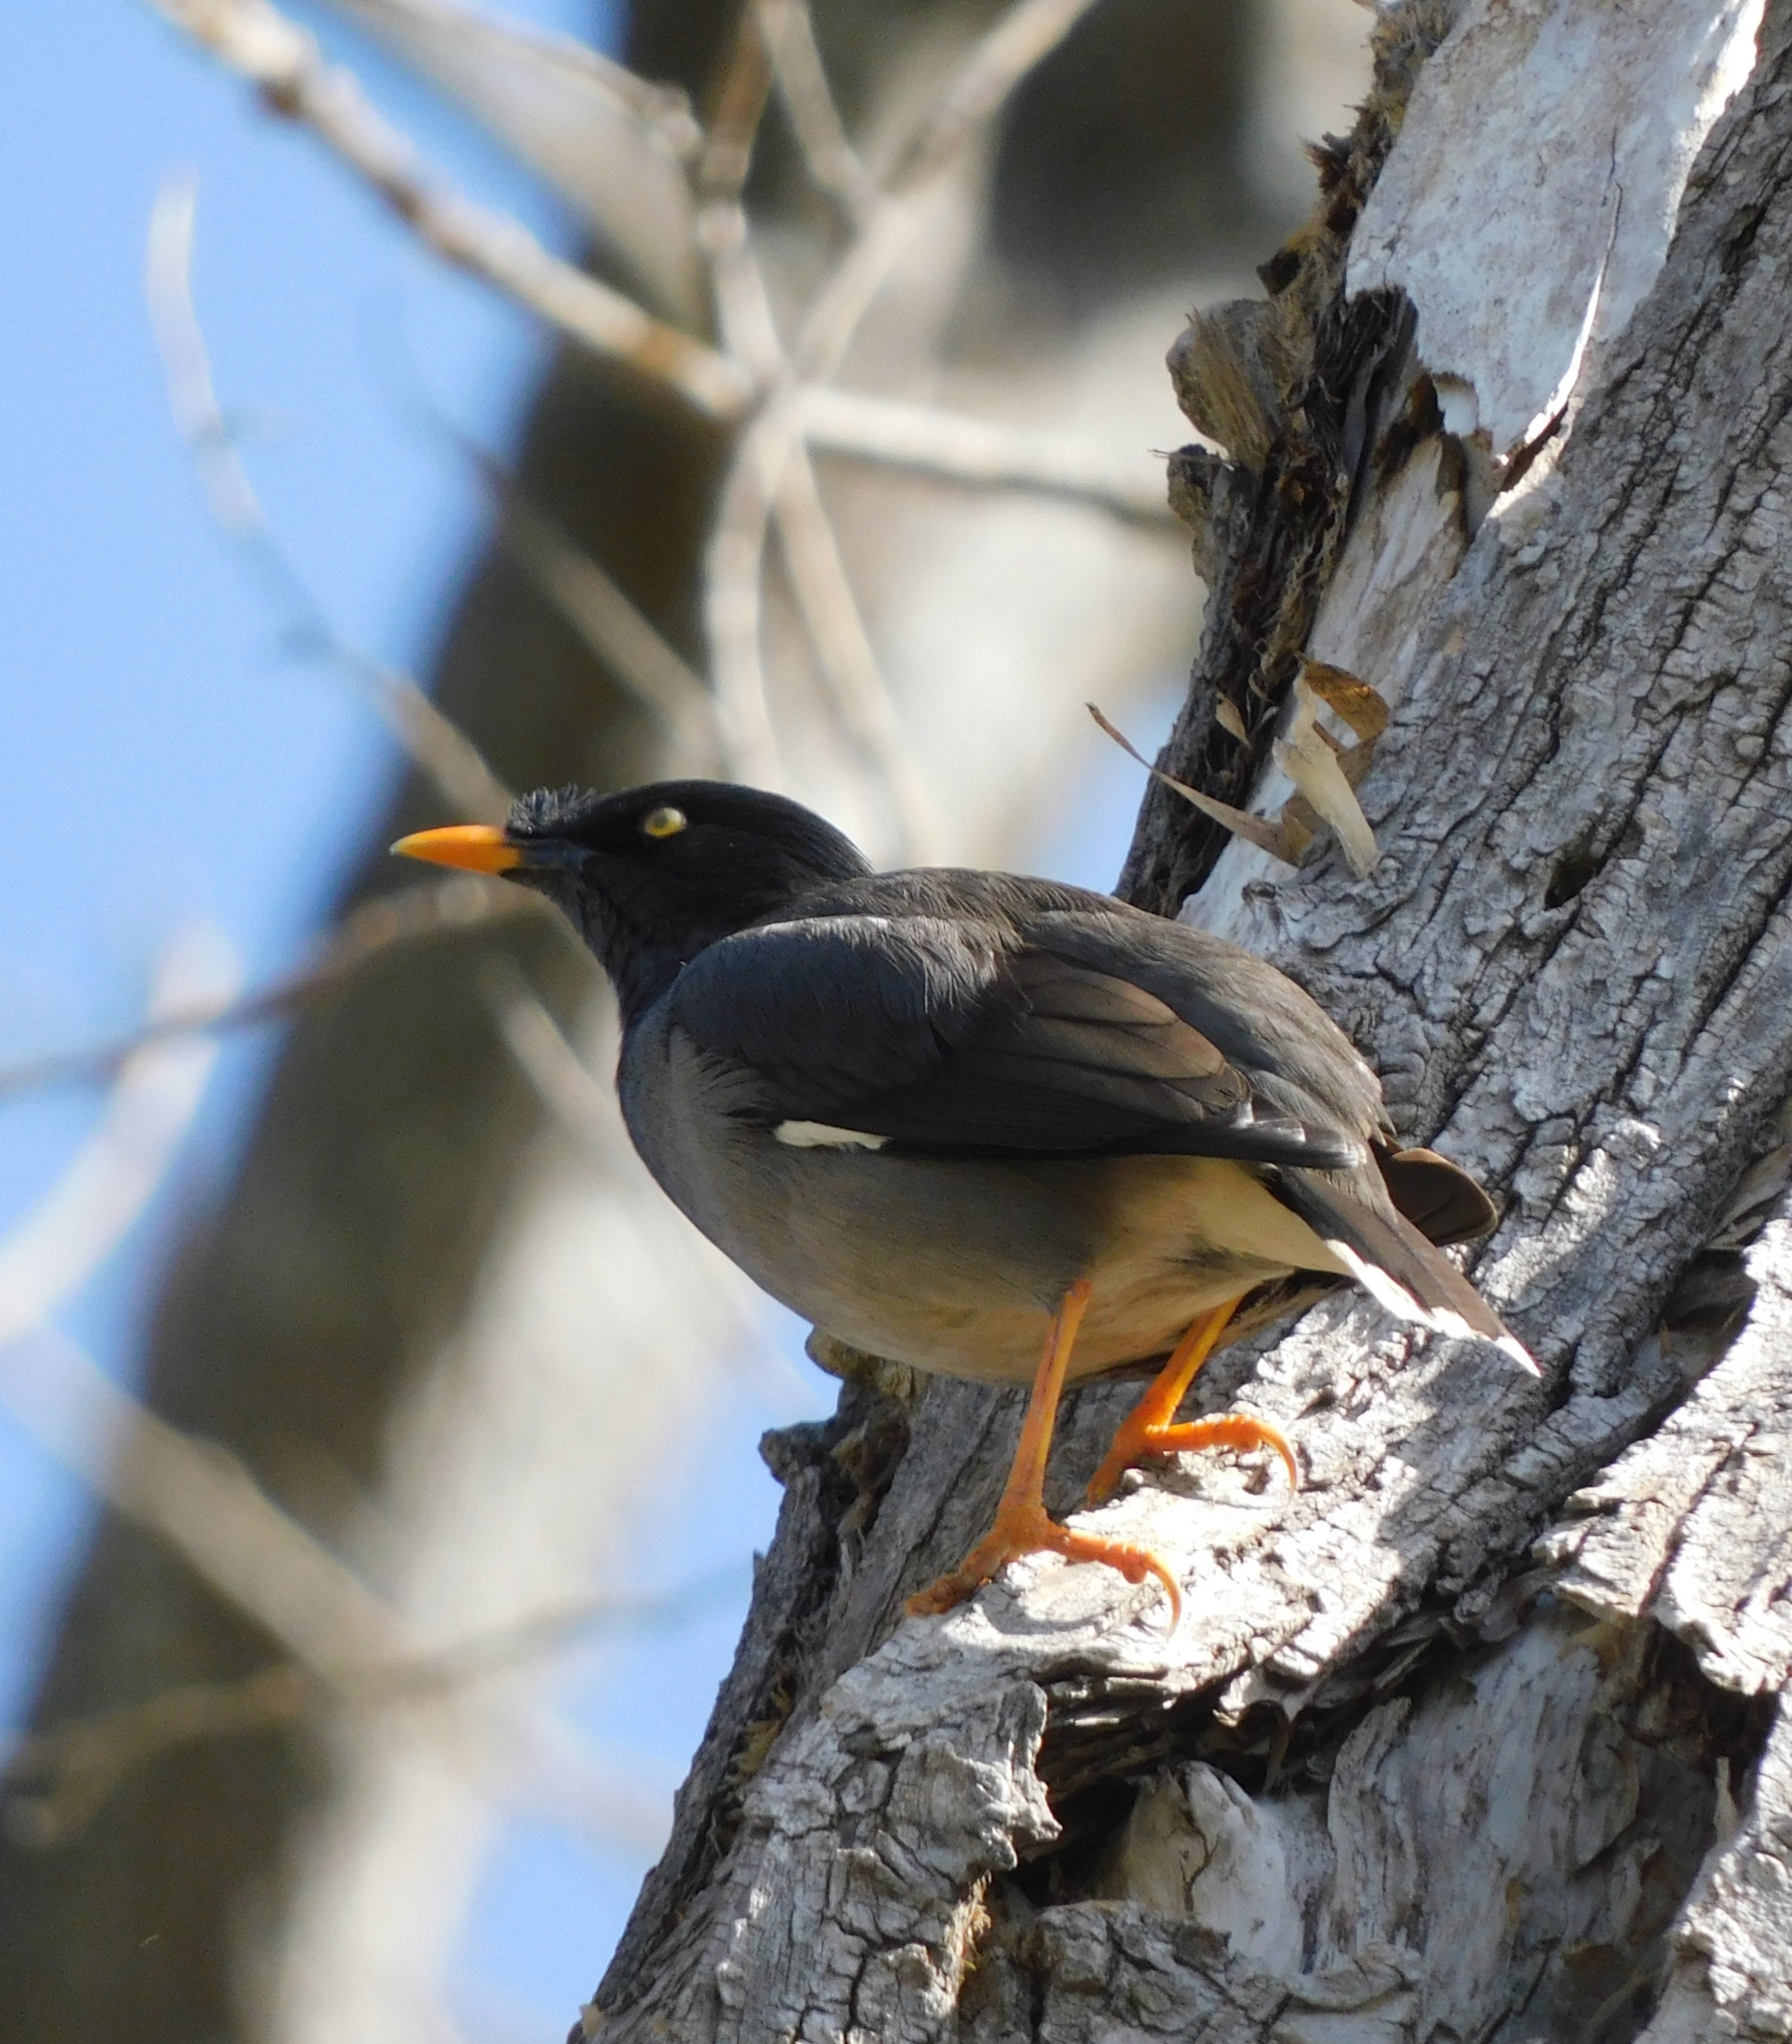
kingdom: Animalia
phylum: Chordata
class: Aves
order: Passeriformes
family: Sturnidae
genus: Acridotheres
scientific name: Acridotheres fuscus
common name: Jungle myna
